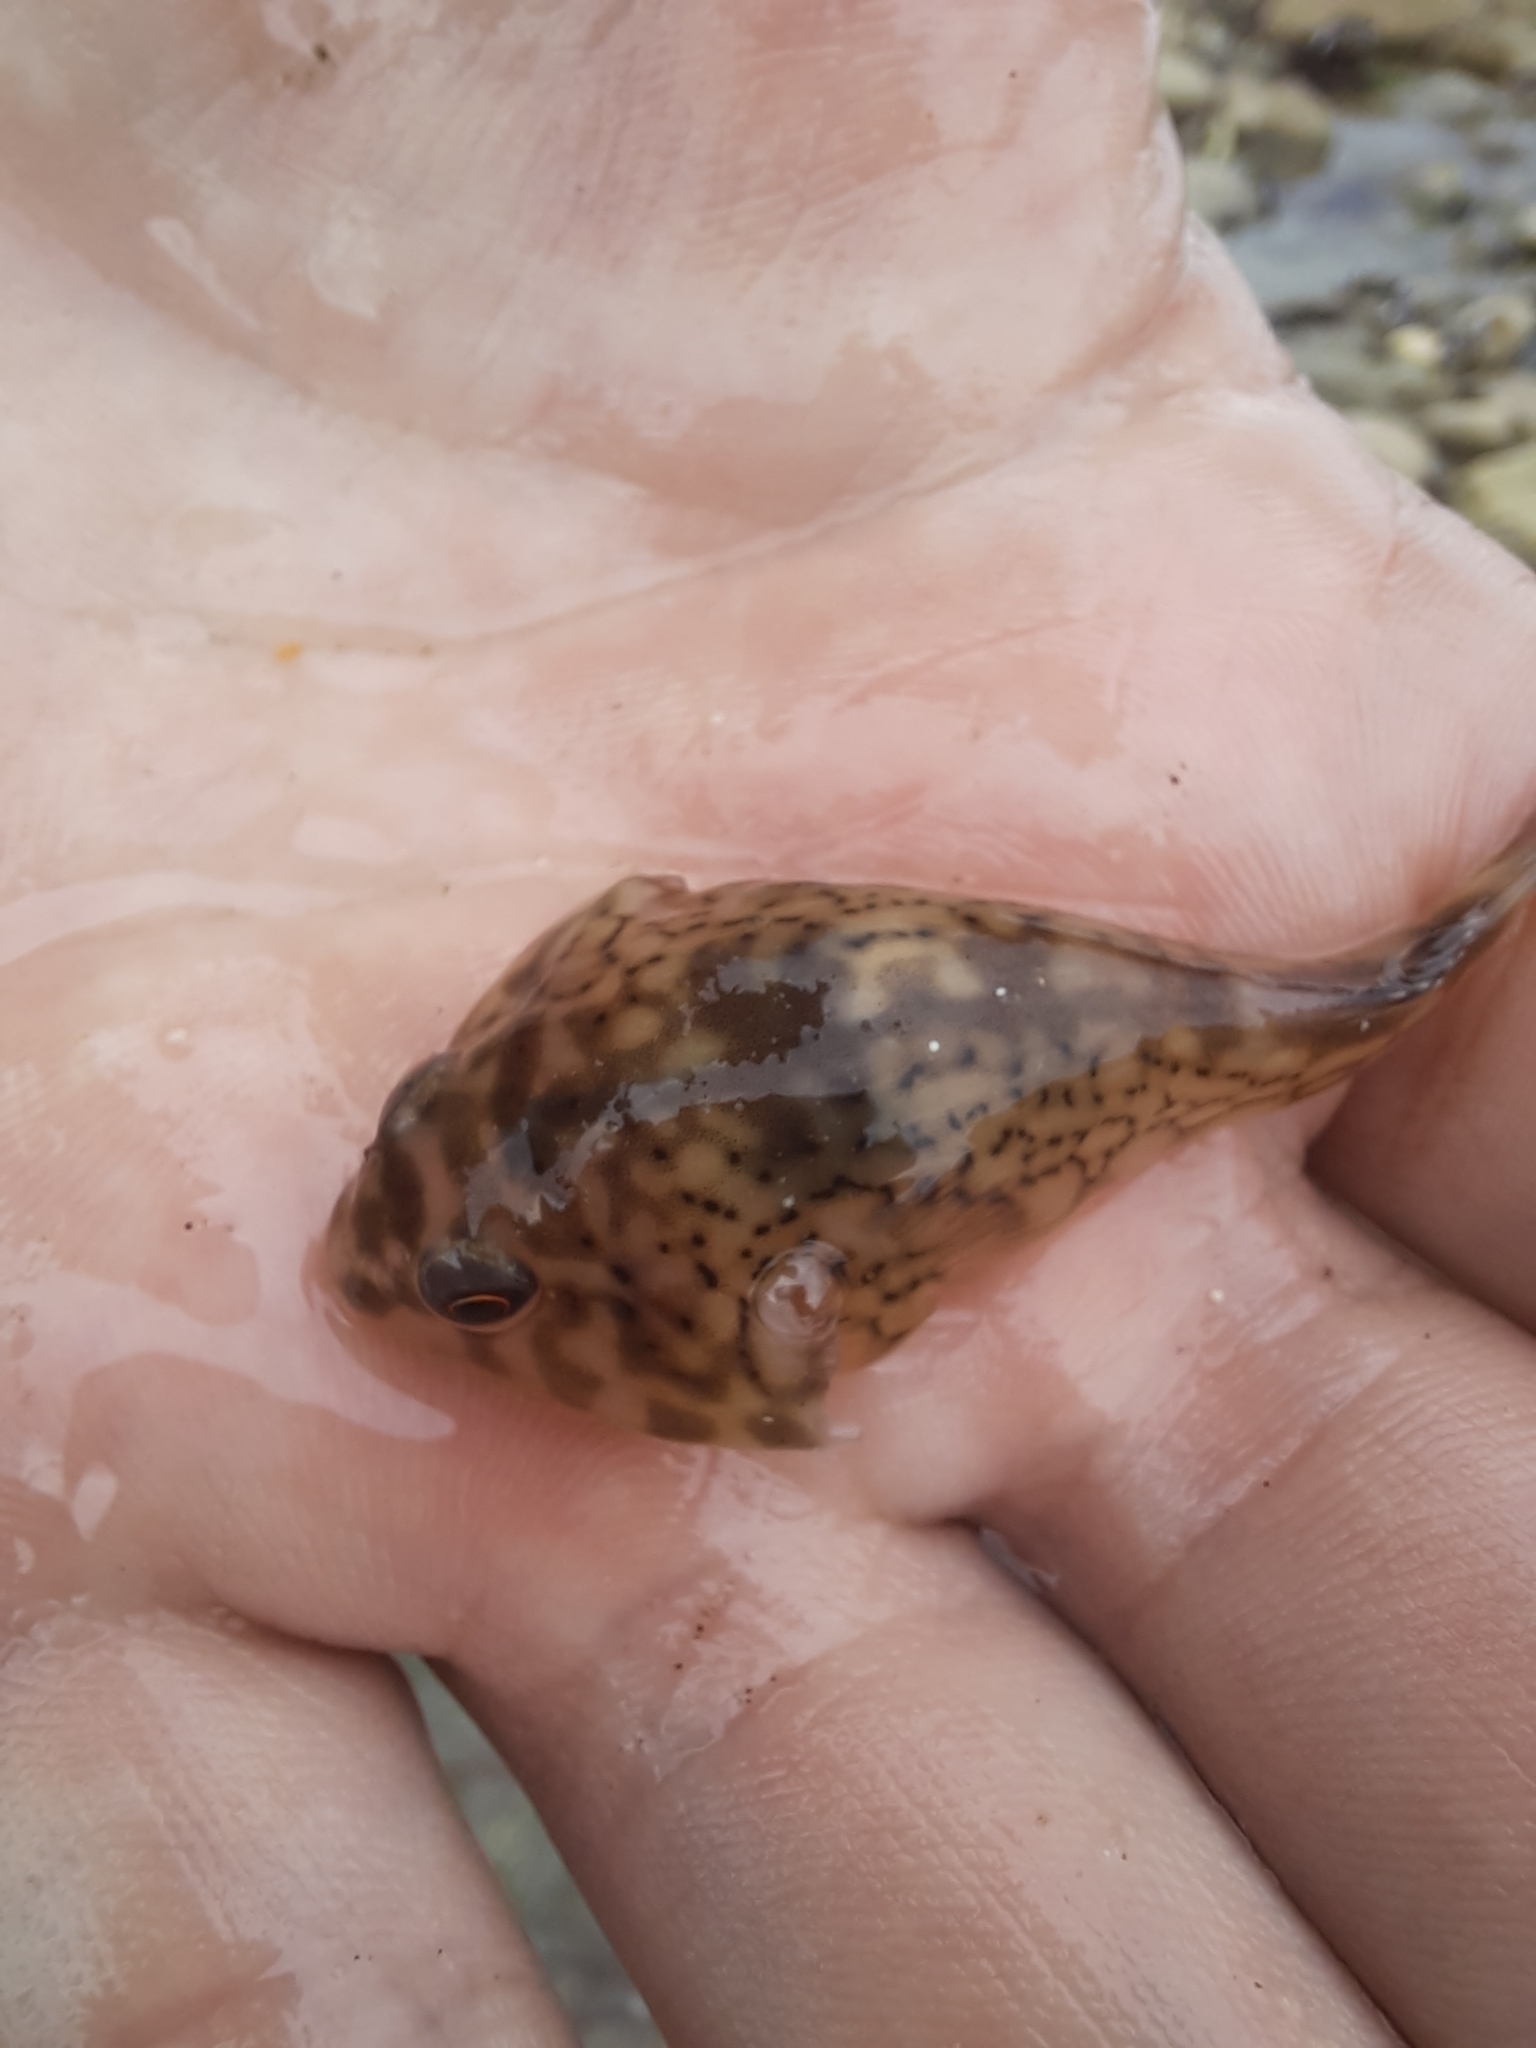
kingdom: Animalia
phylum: Chordata
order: Gobiesociformes
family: Gobiesocidae
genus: Diplocrepis
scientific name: Diplocrepis puniceus
